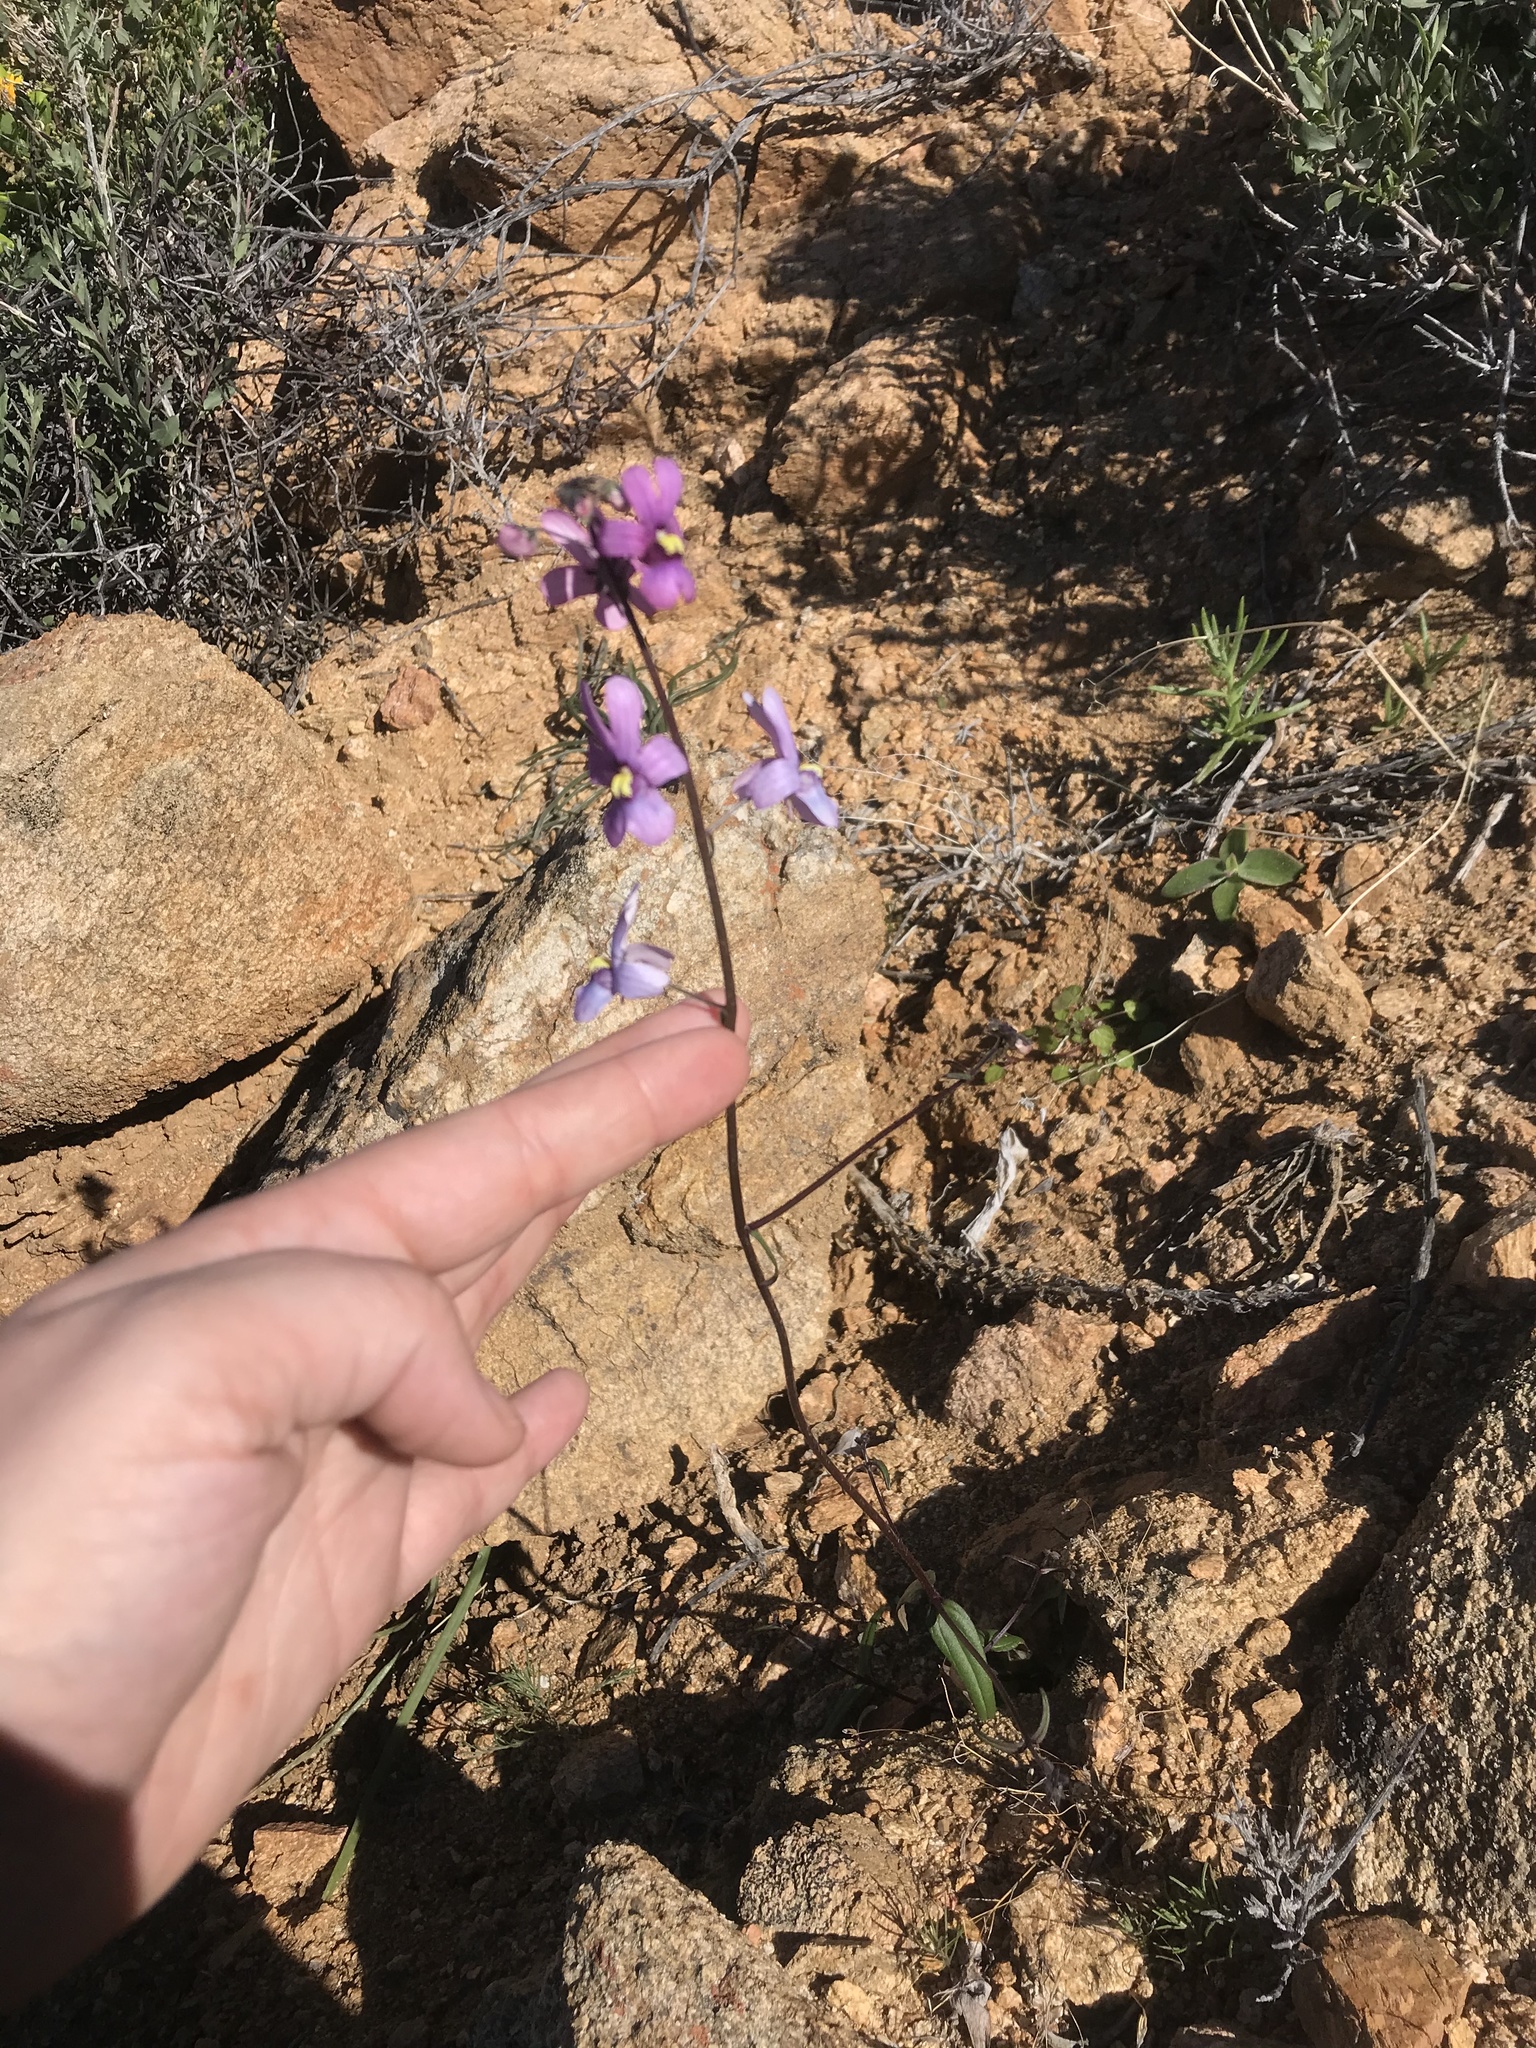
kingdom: Plantae
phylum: Tracheophyta
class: Magnoliopsida
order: Lamiales
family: Scrophulariaceae
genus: Nemesia
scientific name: Nemesia azurea
